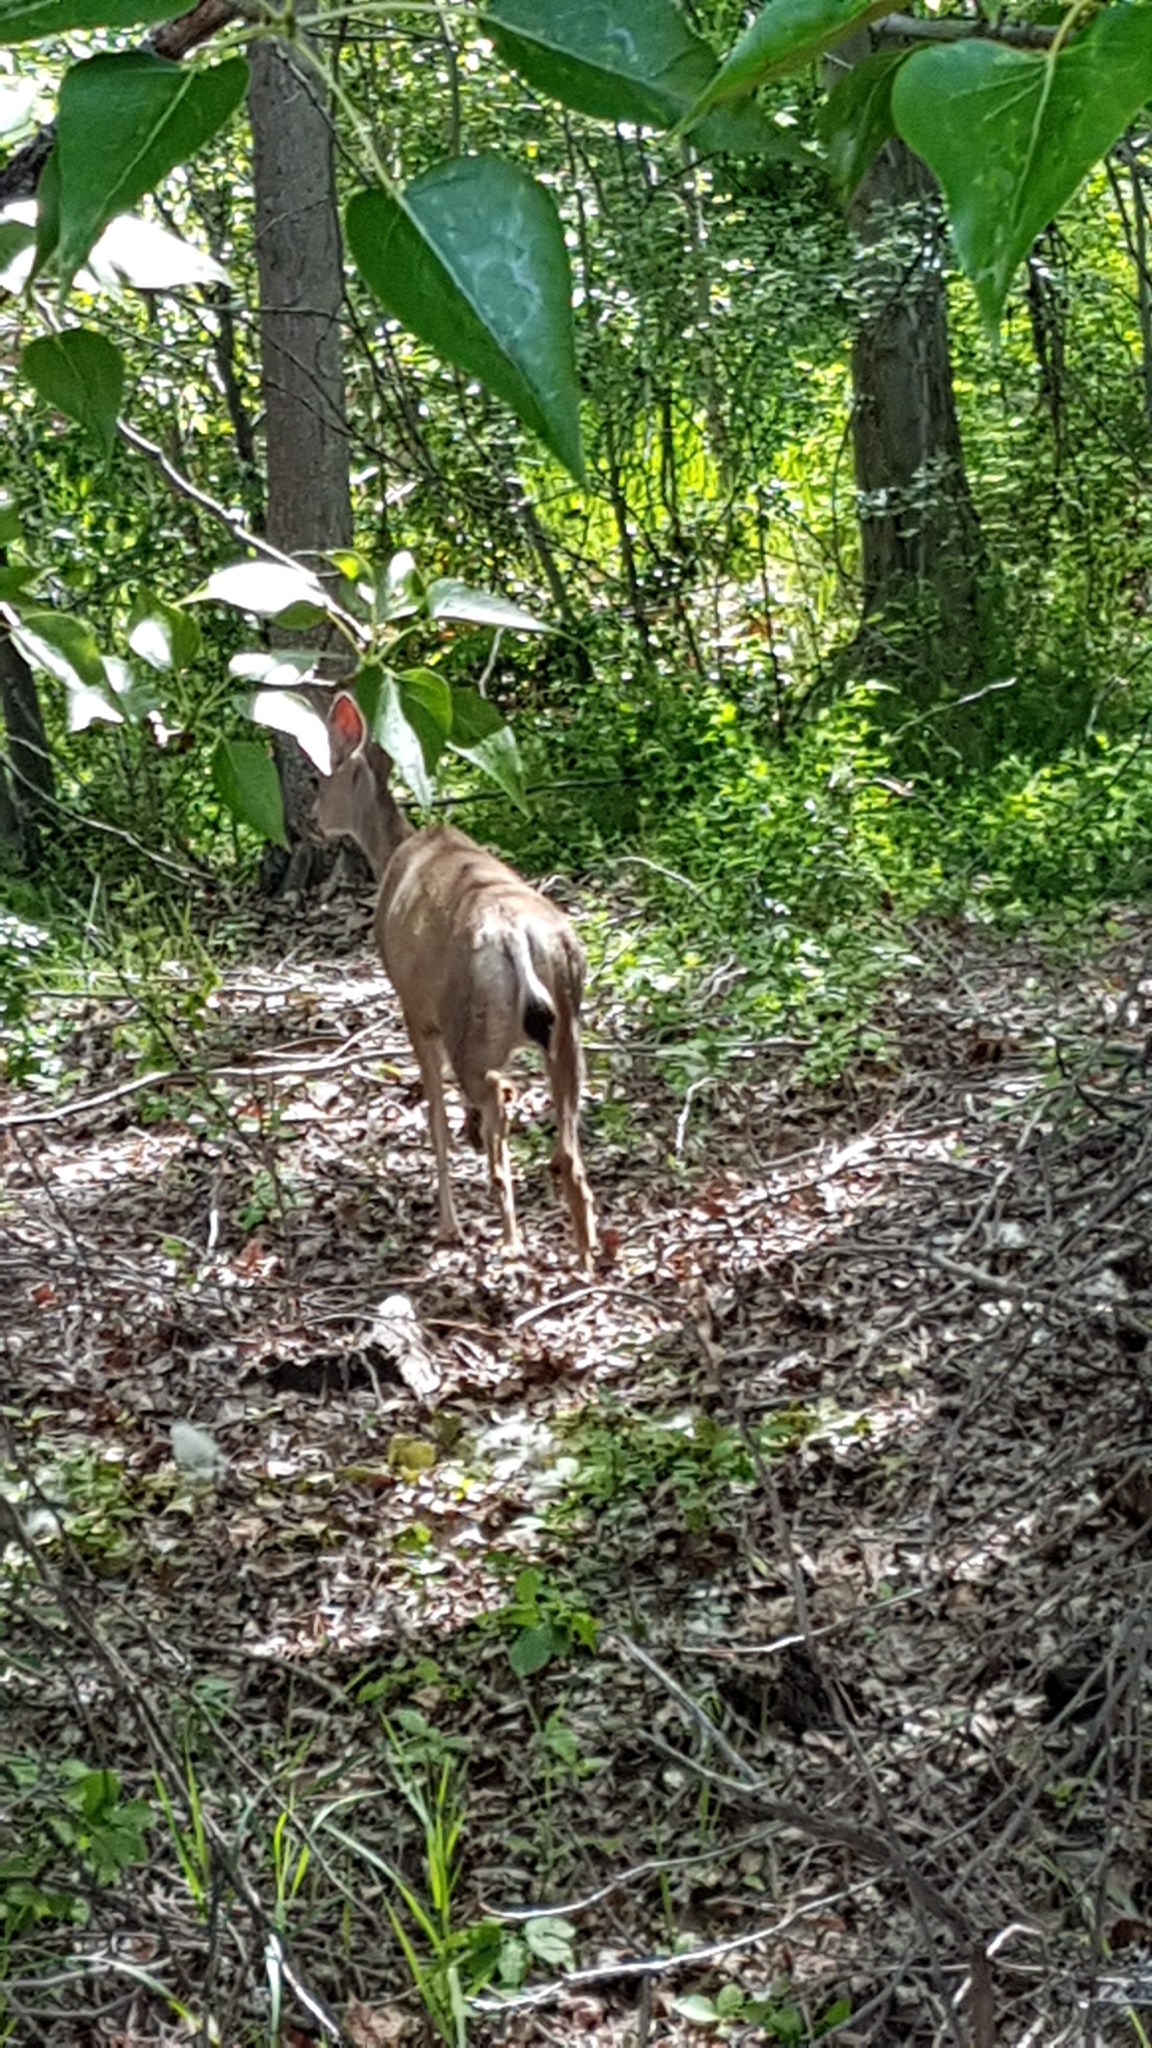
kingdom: Animalia
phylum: Chordata
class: Mammalia
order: Artiodactyla
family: Cervidae
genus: Odocoileus
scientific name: Odocoileus hemionus
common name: Mule deer
